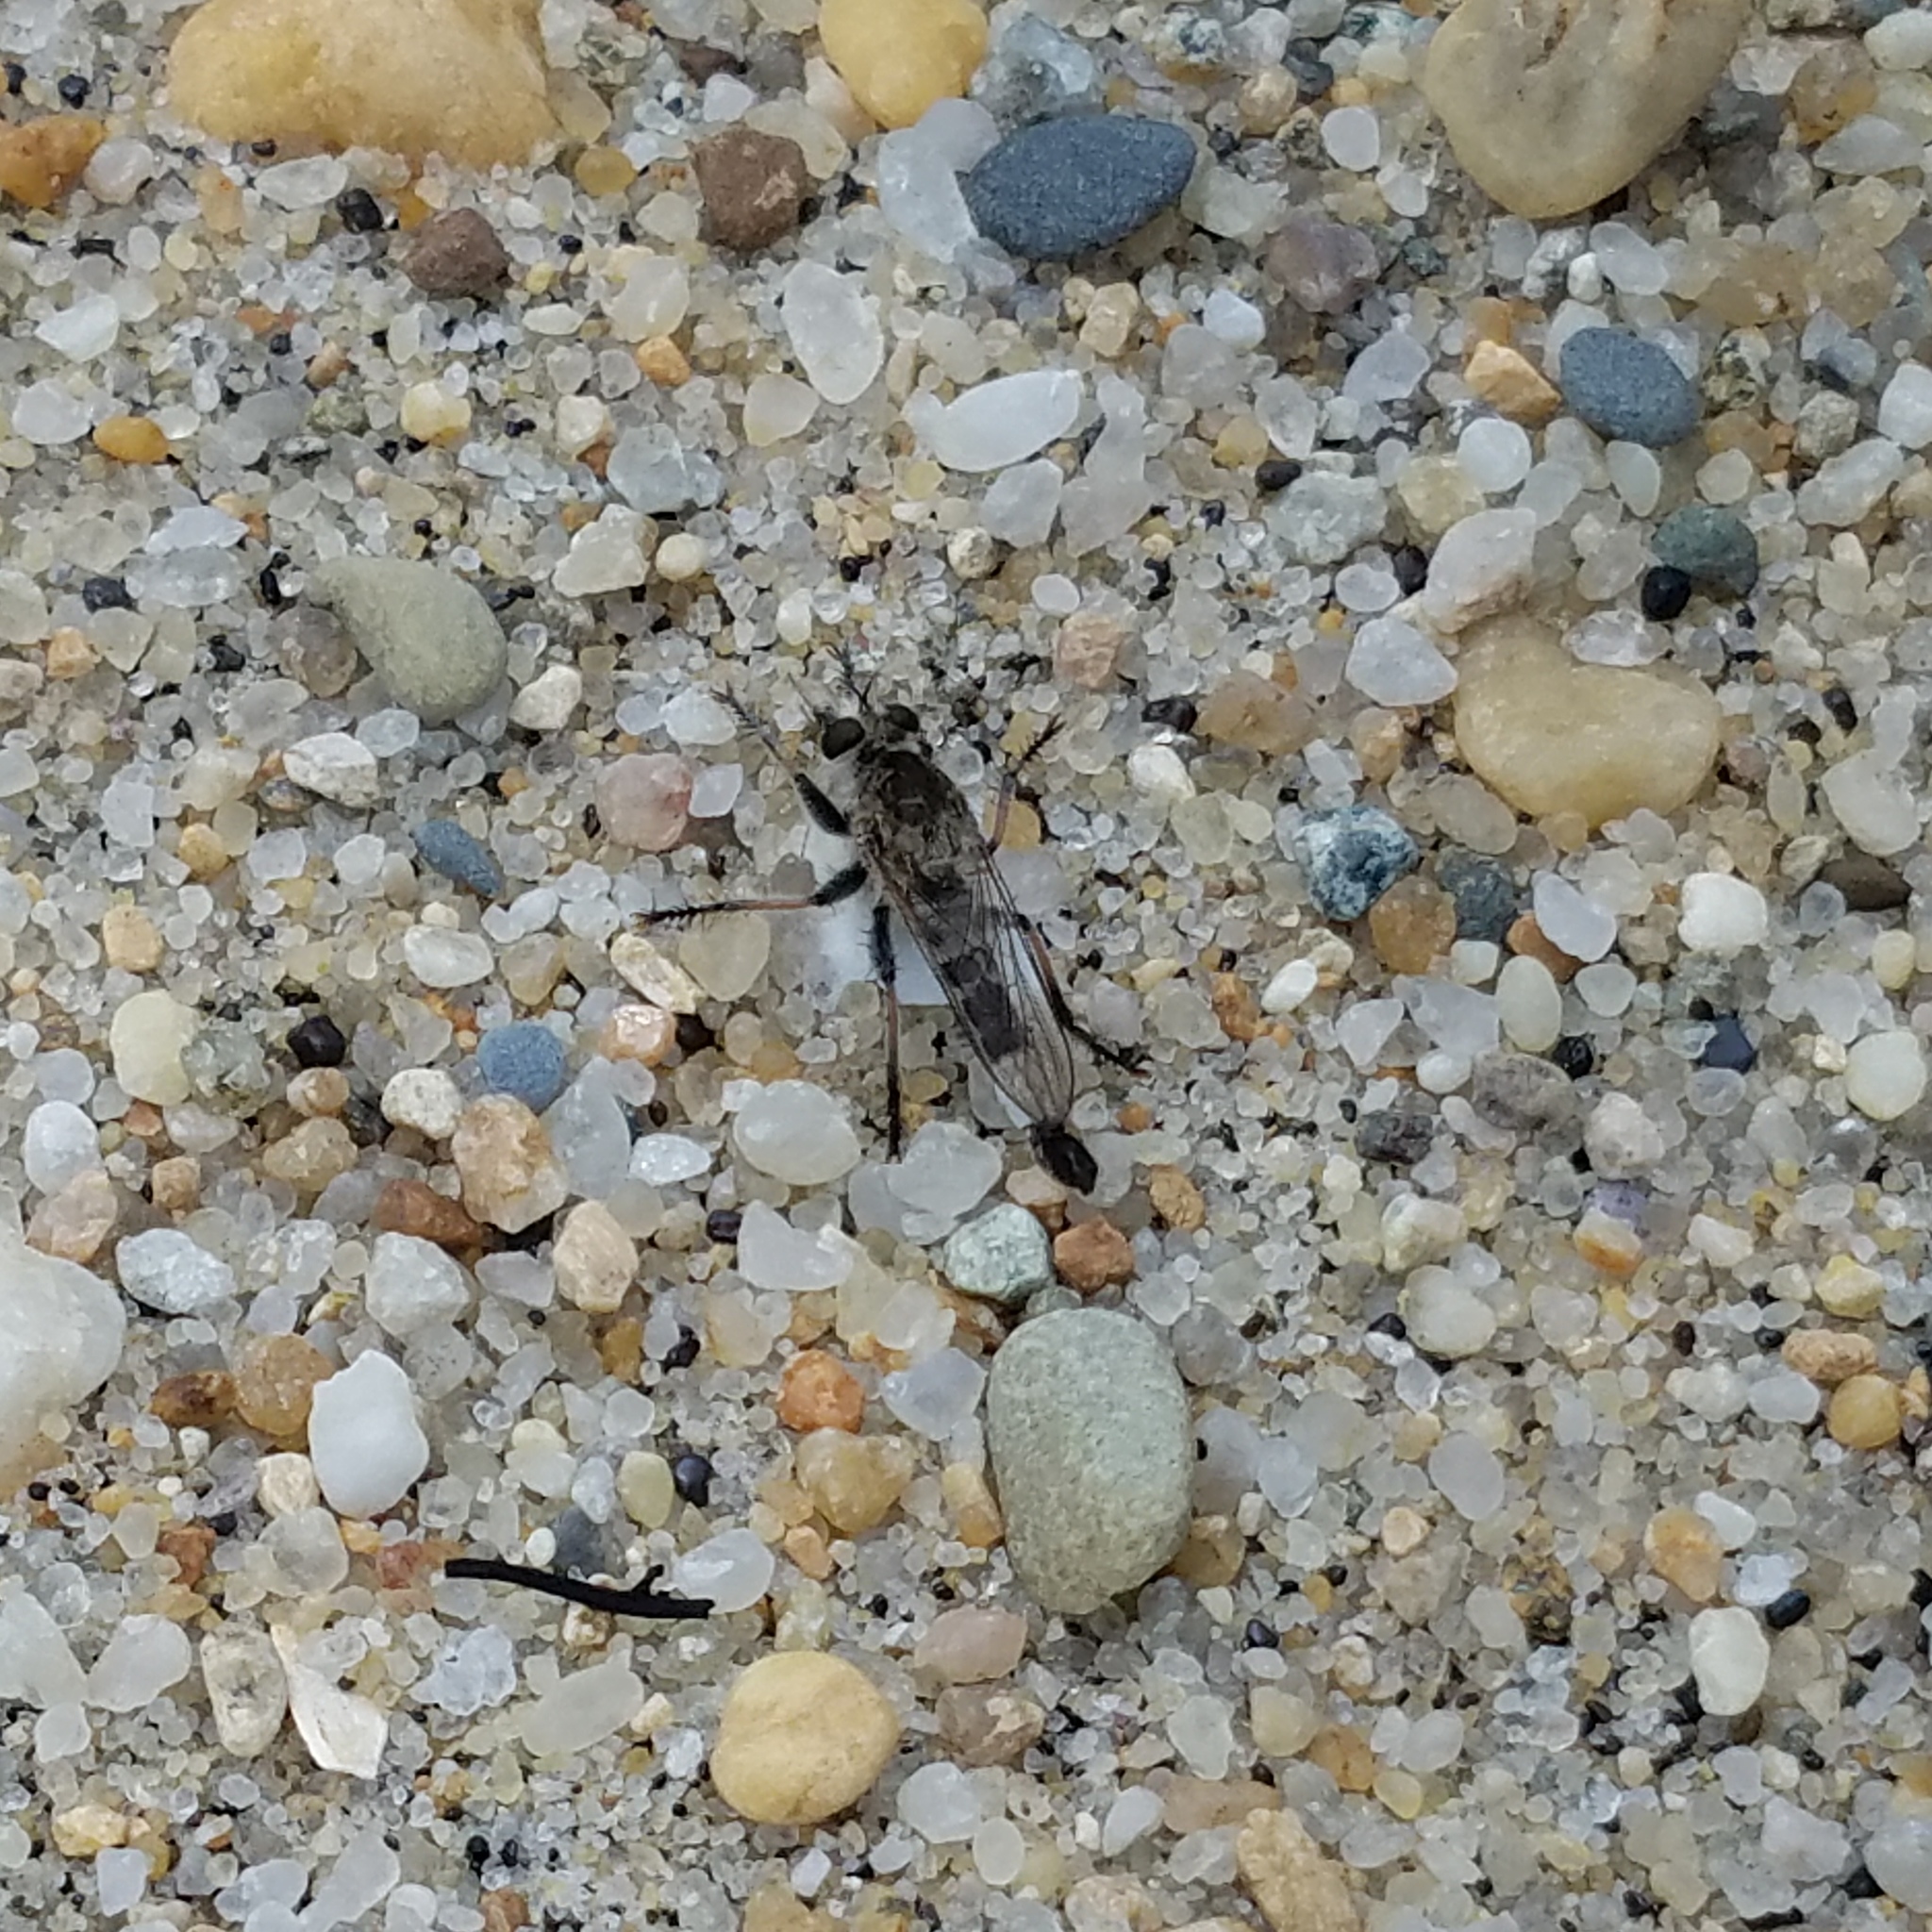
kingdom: Animalia
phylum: Arthropoda
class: Insecta
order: Diptera
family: Asilidae
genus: Efferia
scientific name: Efferia albibarbis
